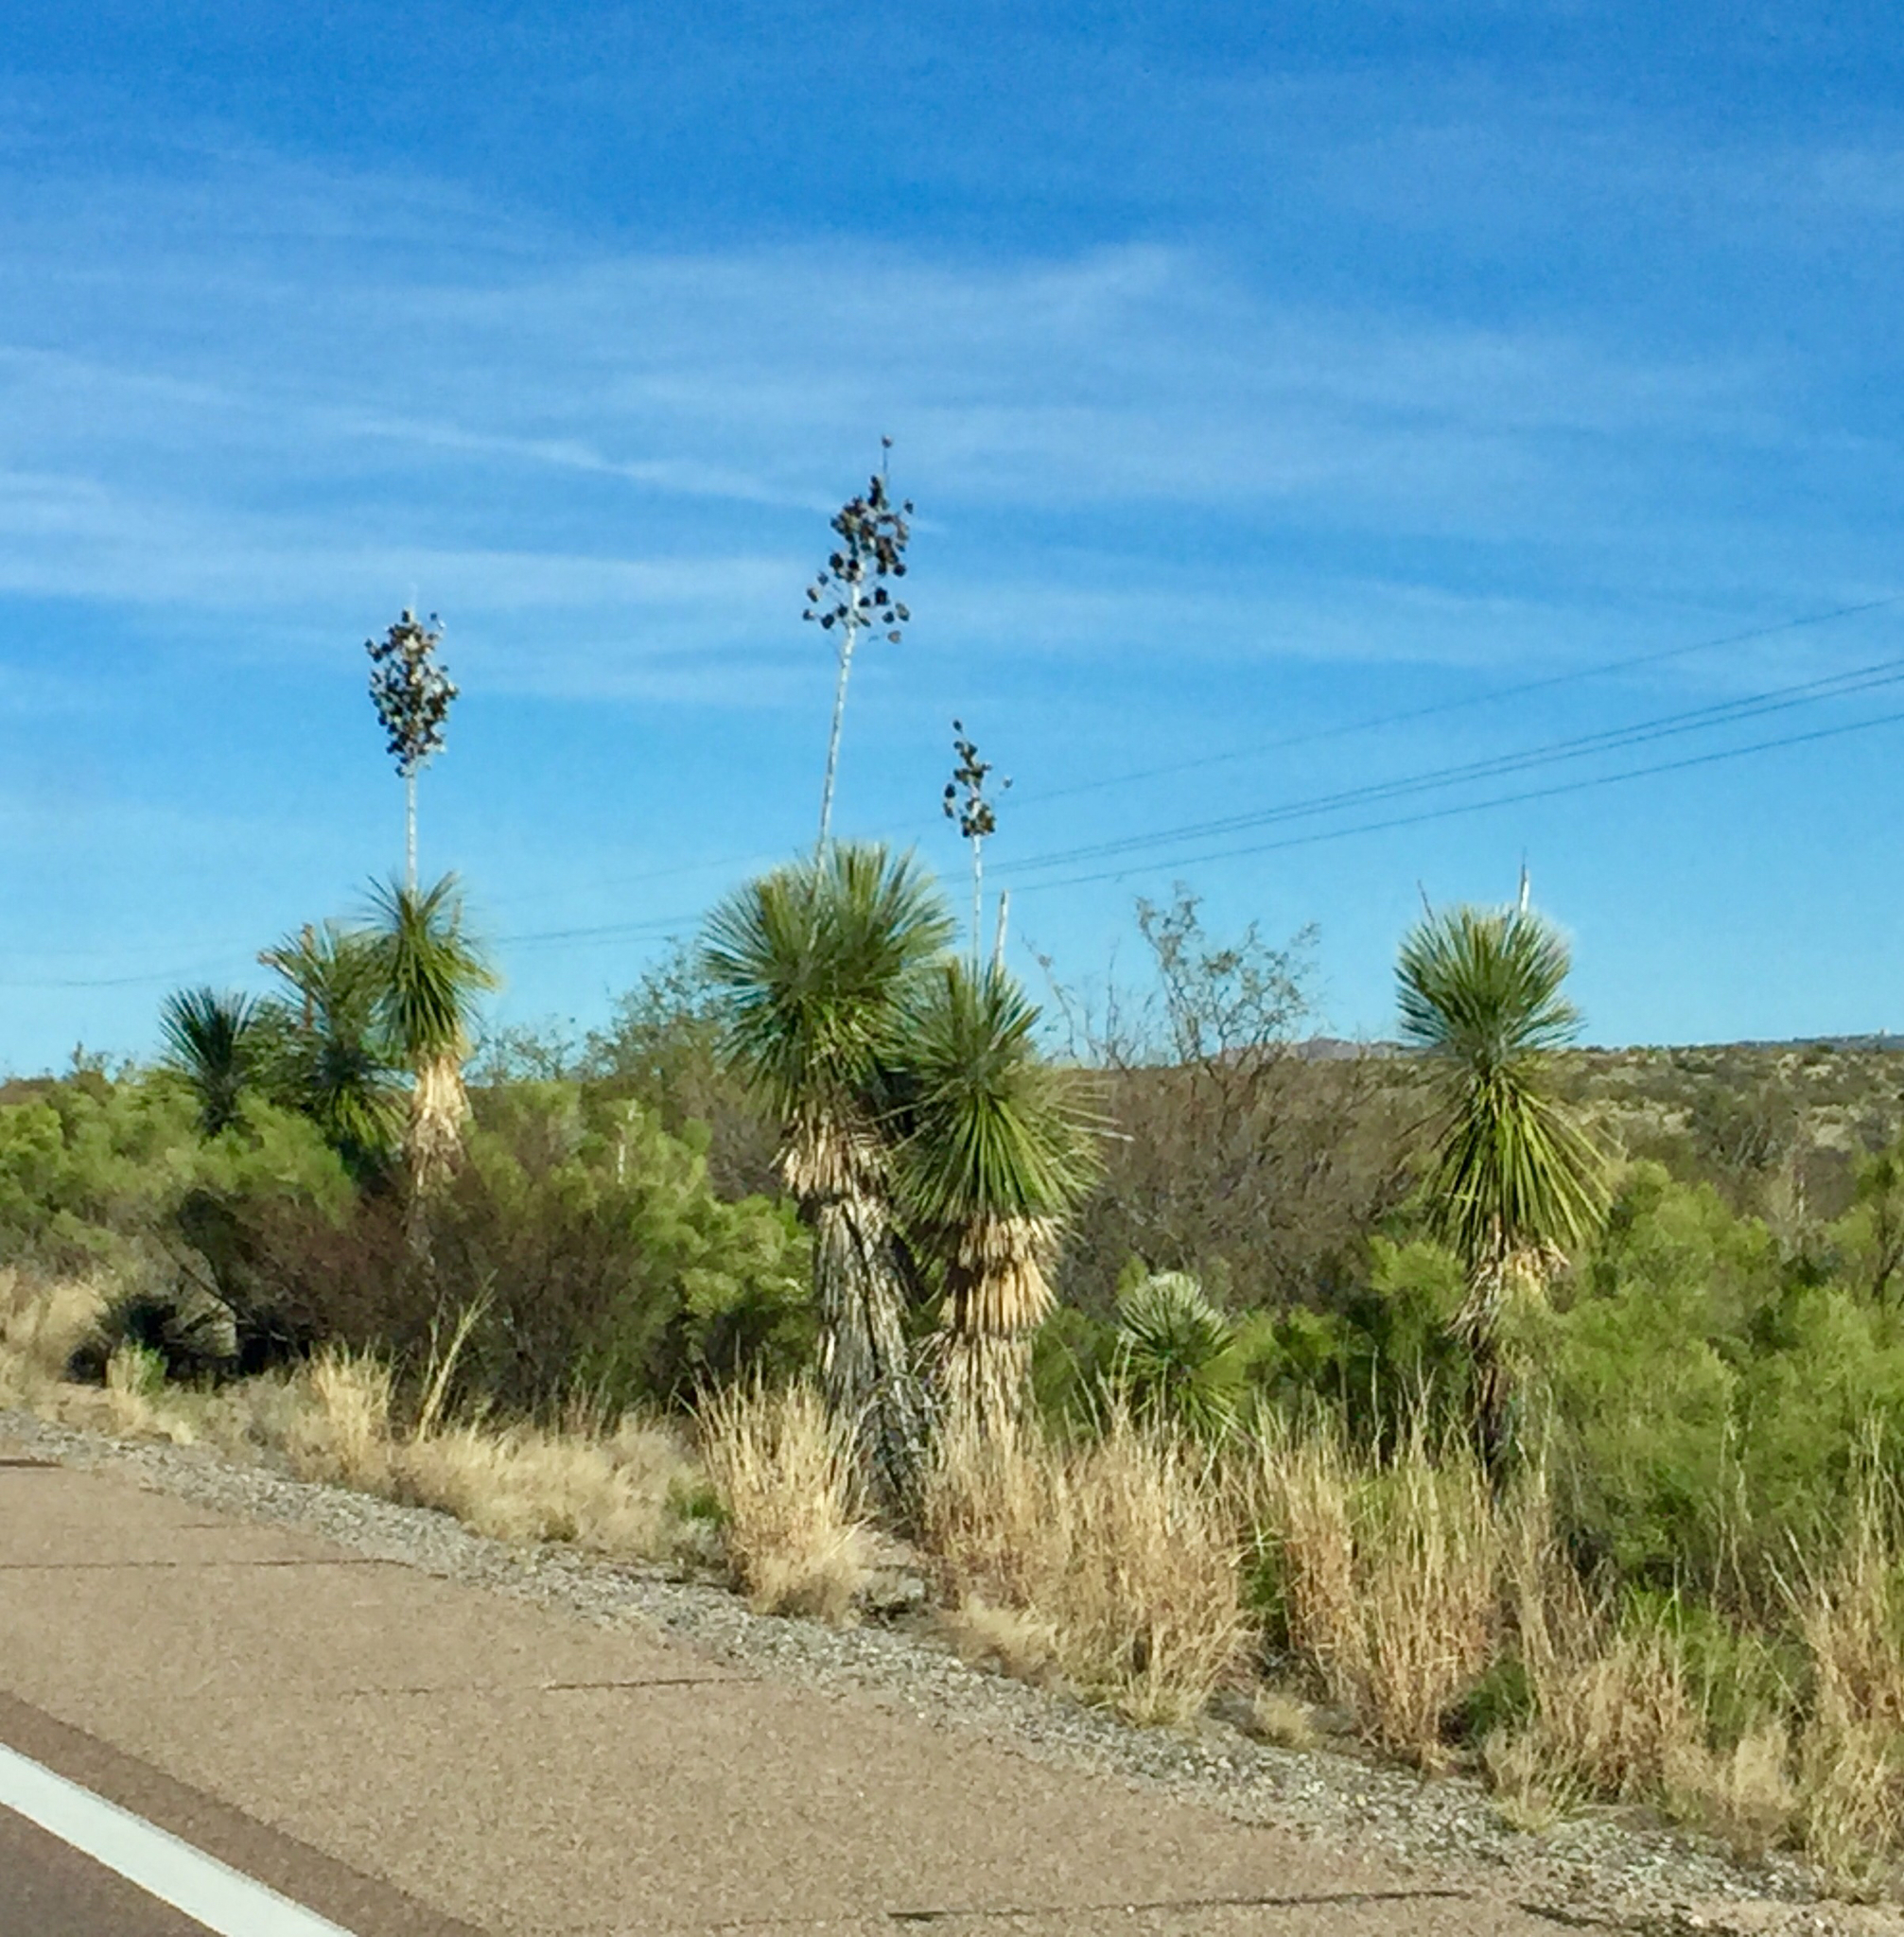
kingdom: Plantae
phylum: Tracheophyta
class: Liliopsida
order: Asparagales
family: Asparagaceae
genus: Yucca
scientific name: Yucca elata
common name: Palmella
